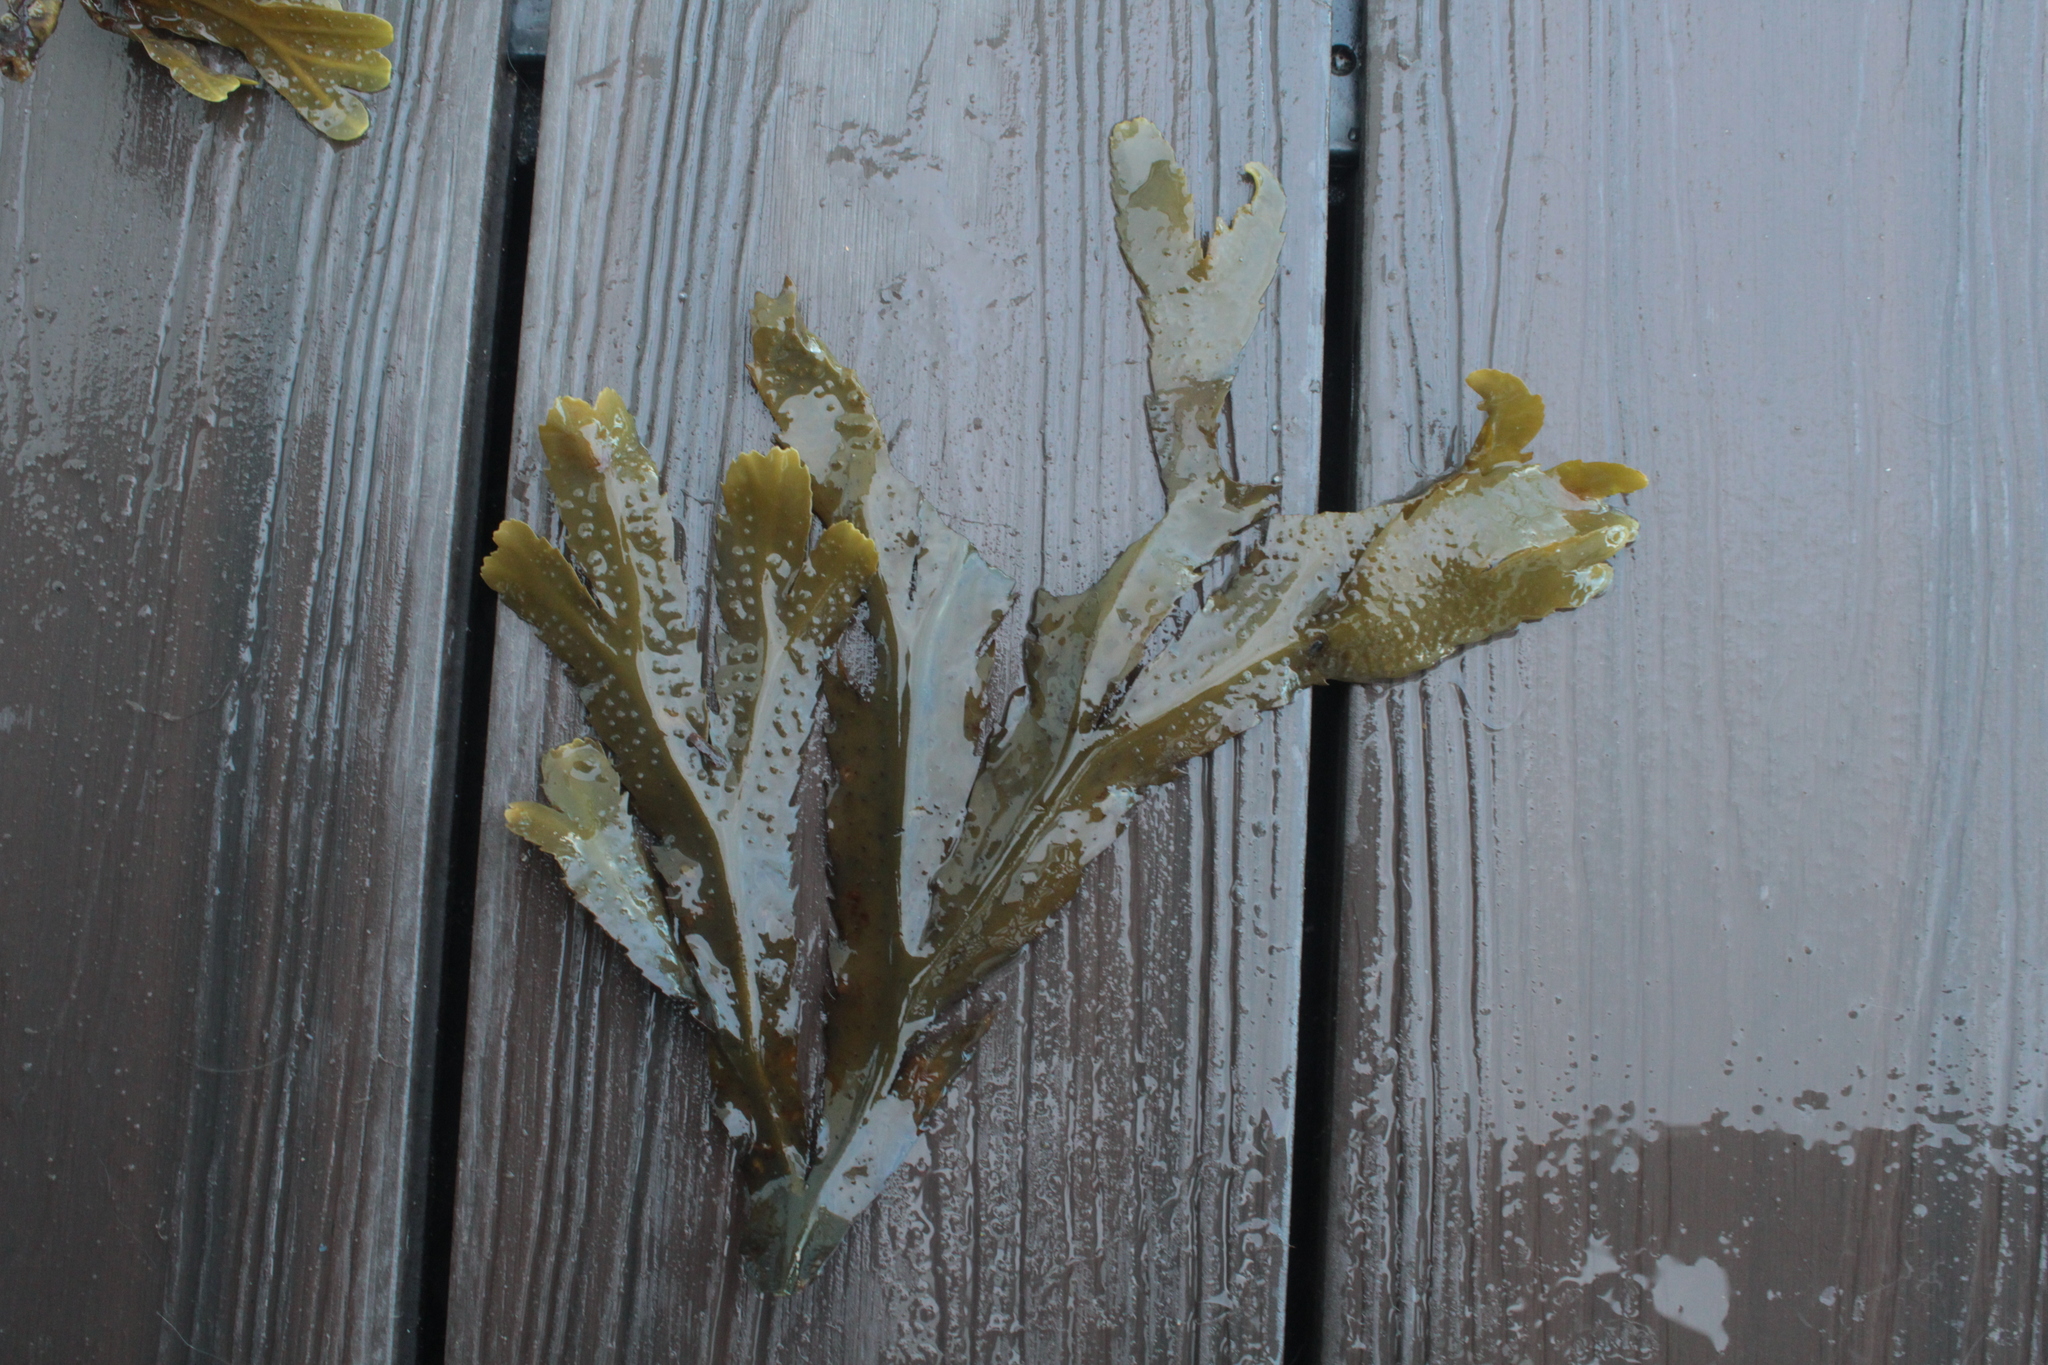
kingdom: Chromista
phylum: Ochrophyta
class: Phaeophyceae
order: Fucales
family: Fucaceae
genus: Fucus
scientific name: Fucus serratus
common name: Toothed wrack
